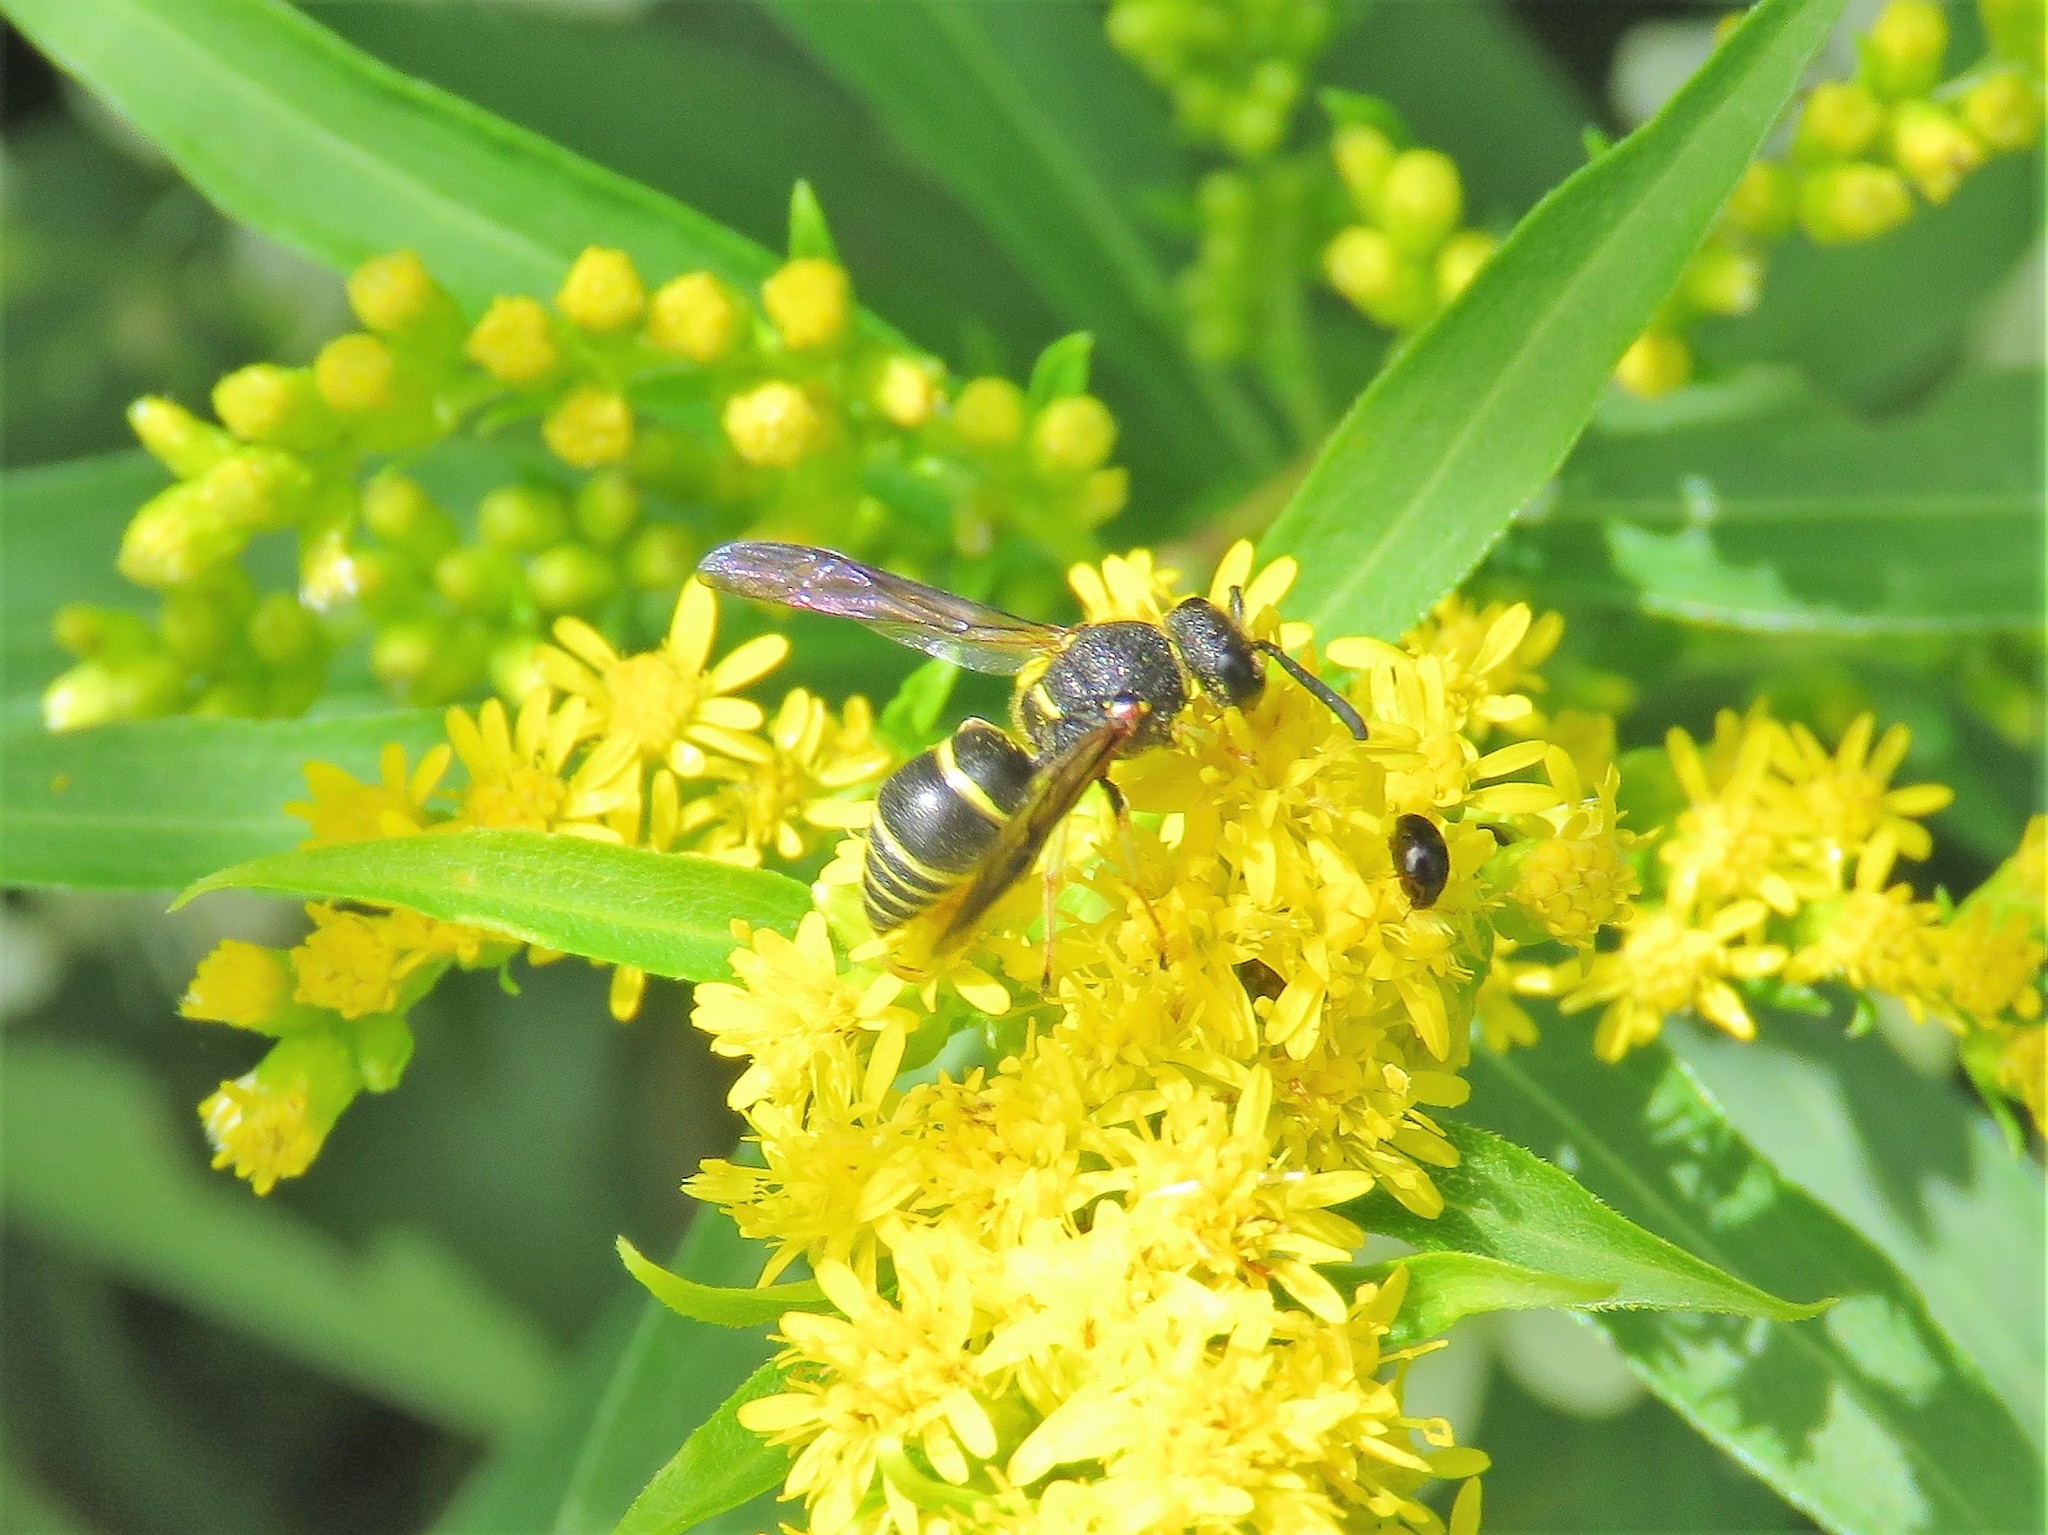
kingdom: Animalia
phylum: Arthropoda
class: Insecta
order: Hymenoptera
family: Eumenidae
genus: Euodynerus
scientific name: Euodynerus foraminatus
